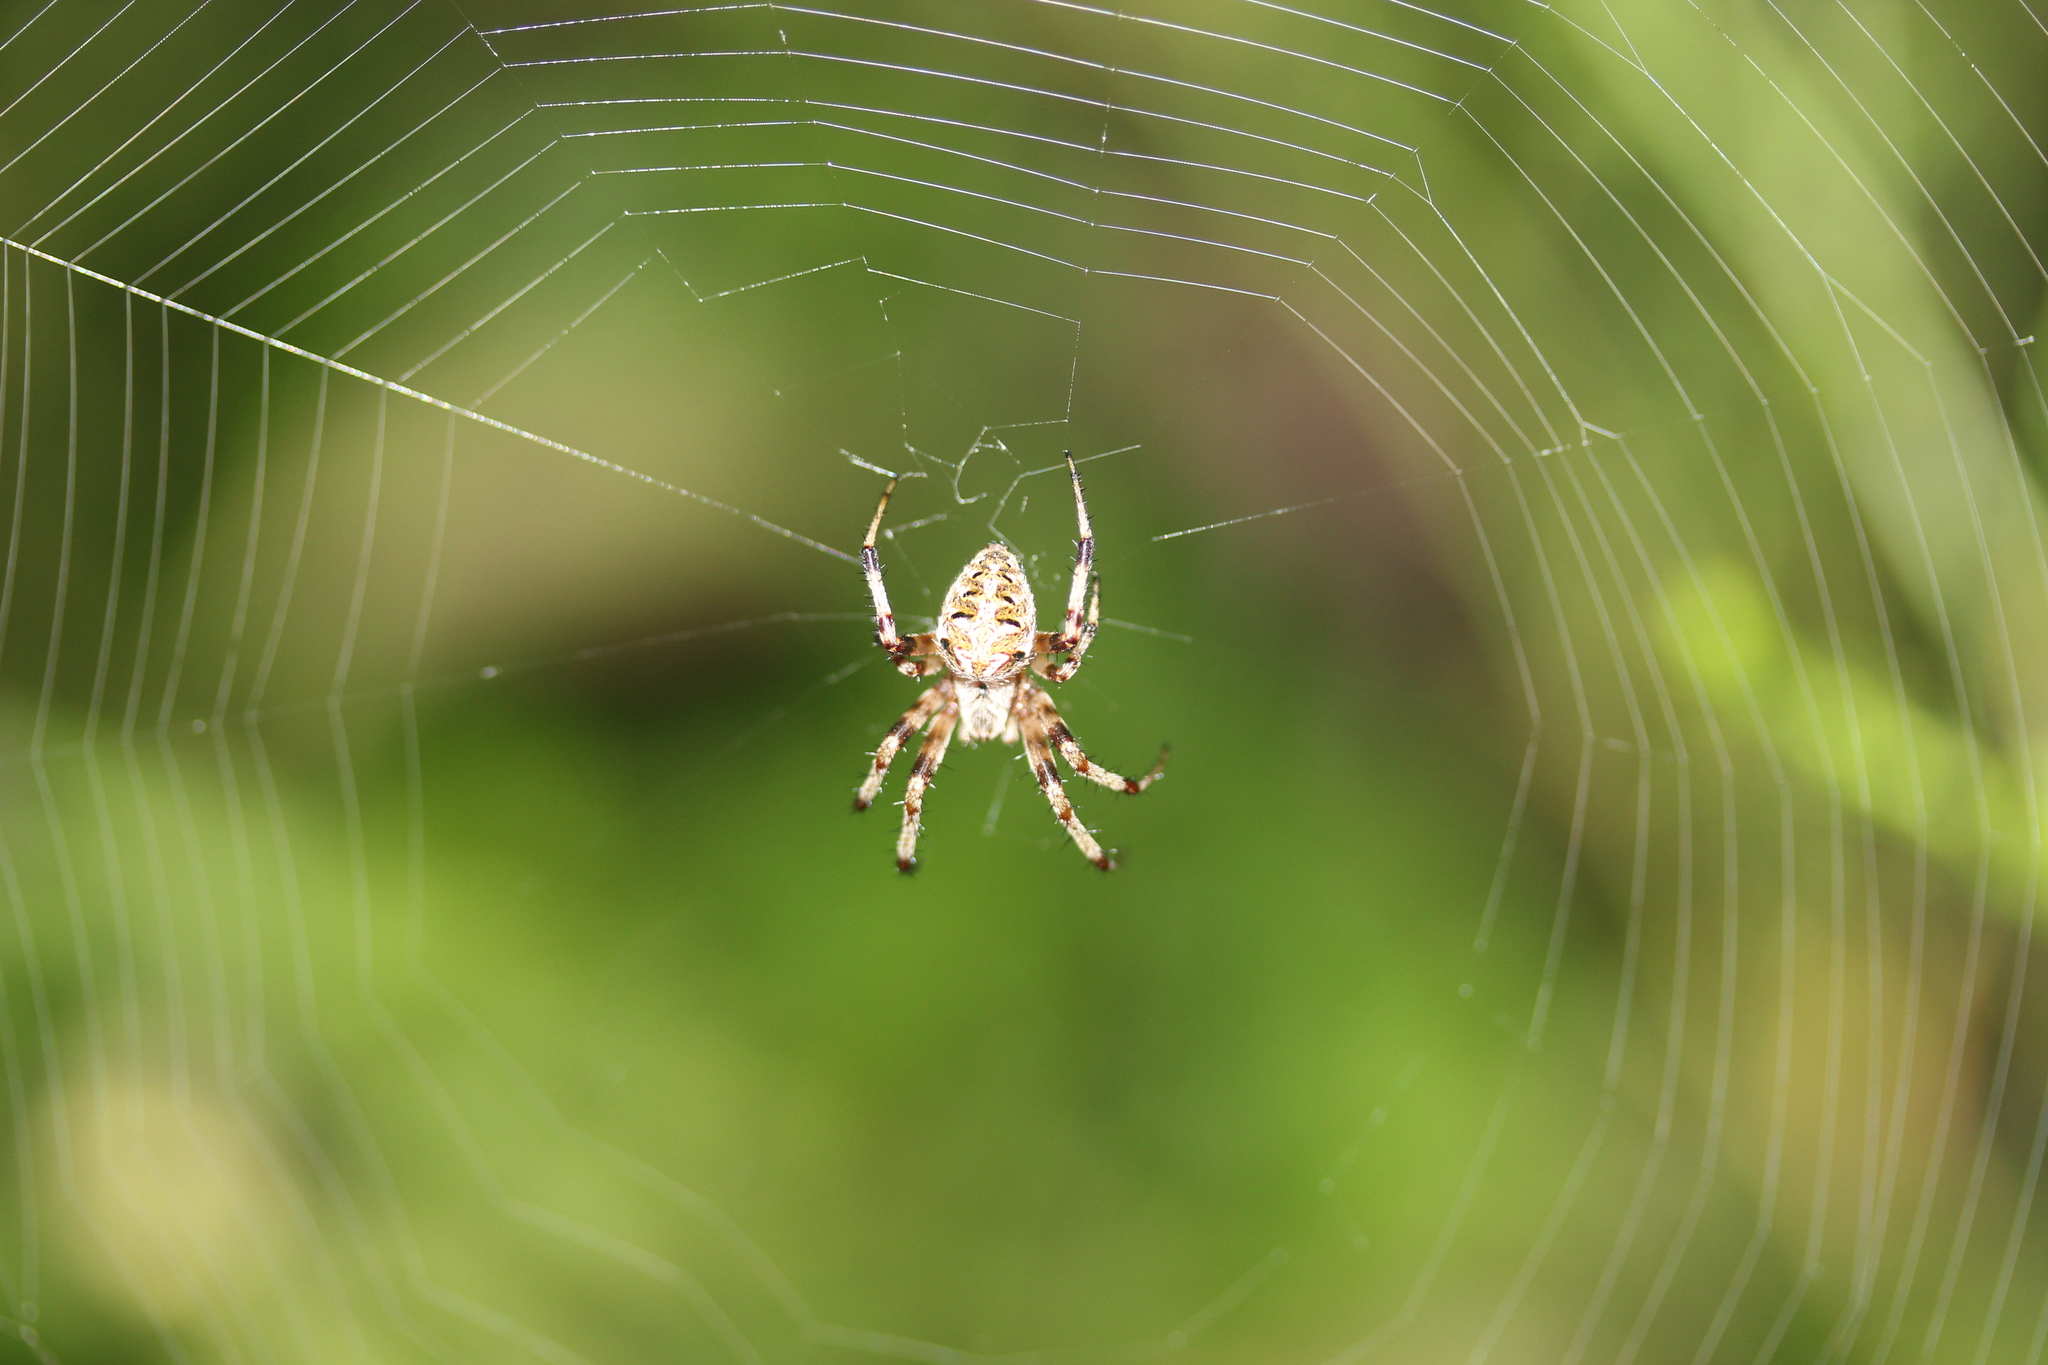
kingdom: Animalia
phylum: Arthropoda
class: Arachnida
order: Araneae
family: Araneidae
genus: Neoscona
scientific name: Neoscona arabesca
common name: Orb weavers
